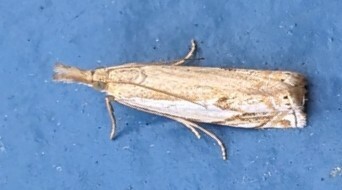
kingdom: Animalia
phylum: Arthropoda
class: Insecta
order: Lepidoptera
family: Crambidae
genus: Crambus
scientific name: Crambus agitatellus
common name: Double-banded grass-veneer
